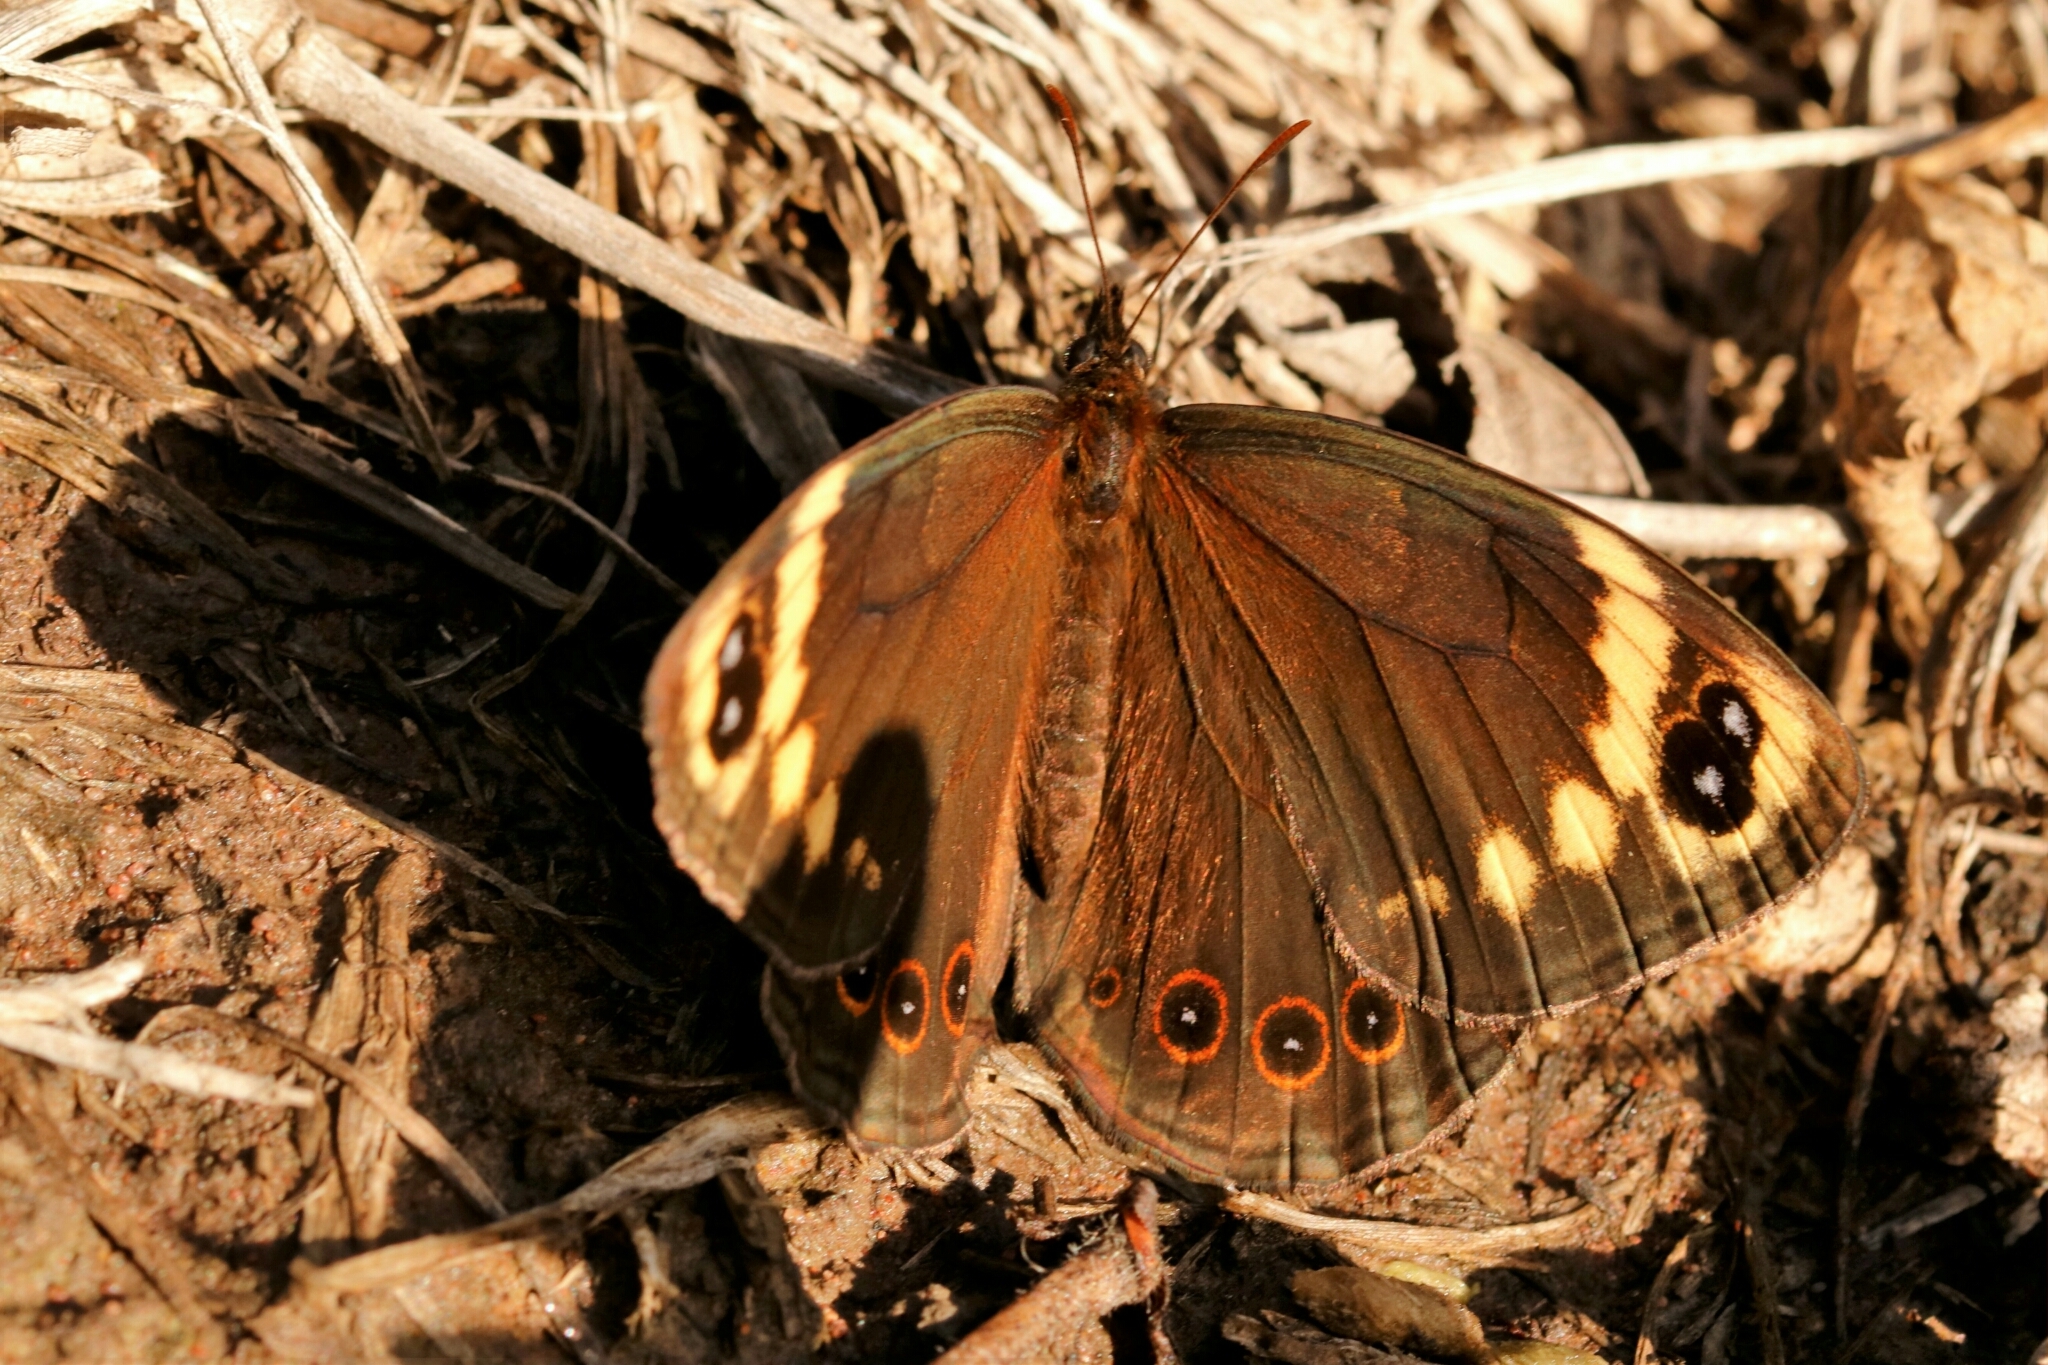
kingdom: Animalia
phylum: Arthropoda
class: Insecta
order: Lepidoptera
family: Nymphalidae
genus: Dira
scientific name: Dira clytus
